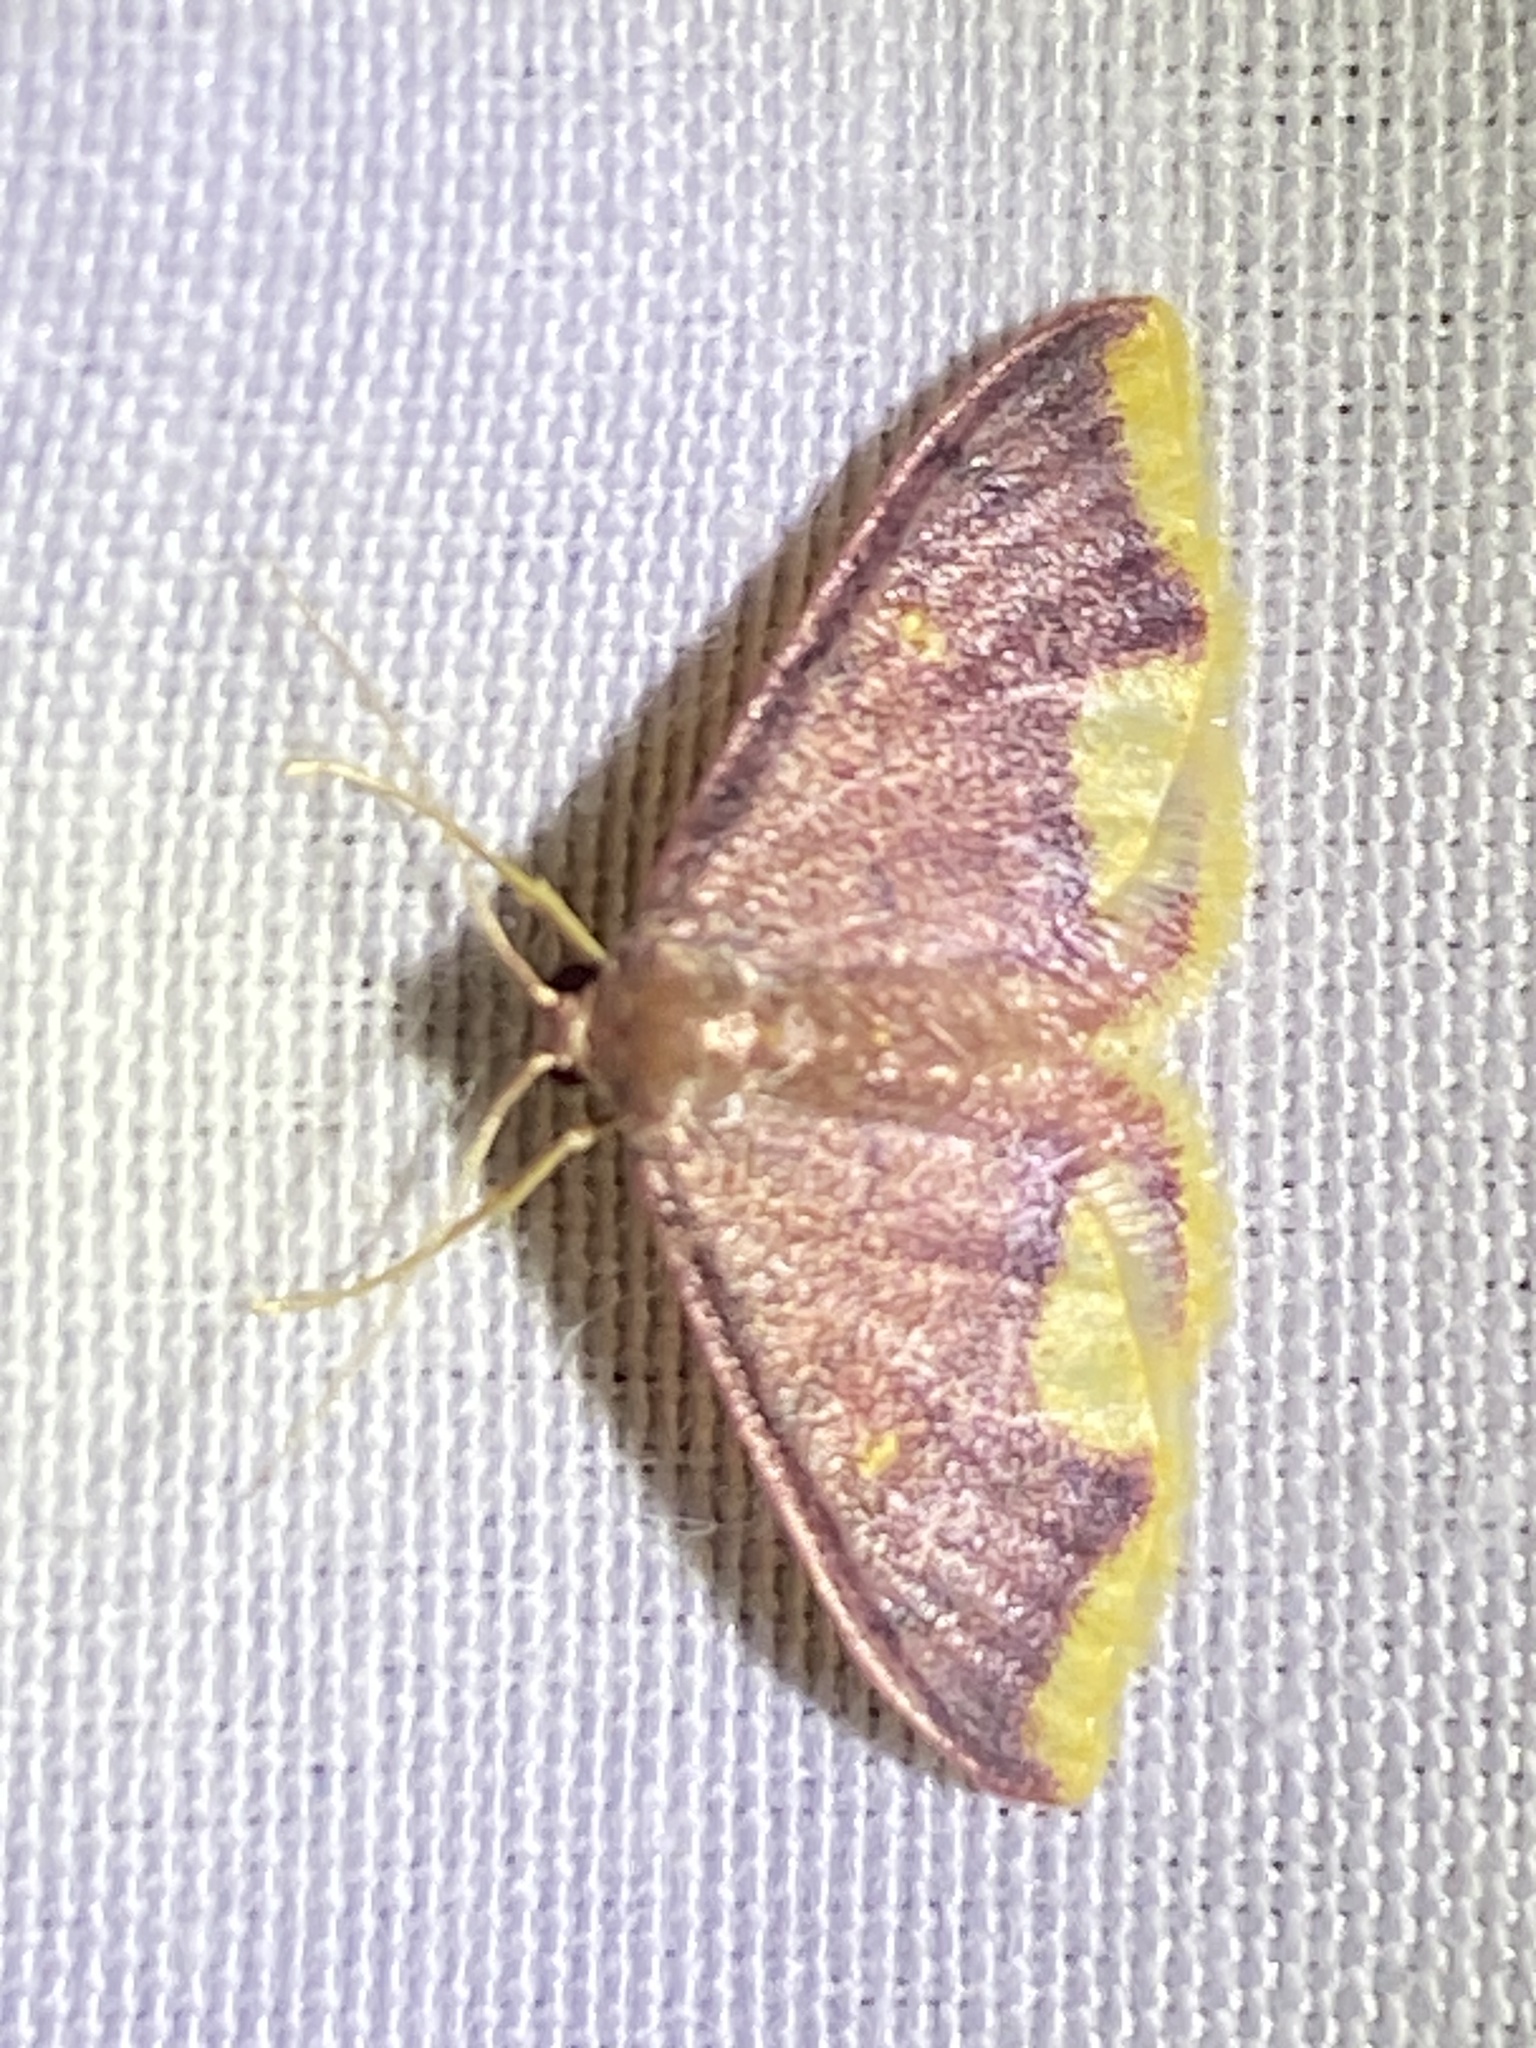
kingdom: Animalia
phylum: Arthropoda
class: Insecta
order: Lepidoptera
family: Geometridae
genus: Lophosis
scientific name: Lophosis labeculata
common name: Stained lophosis moth
